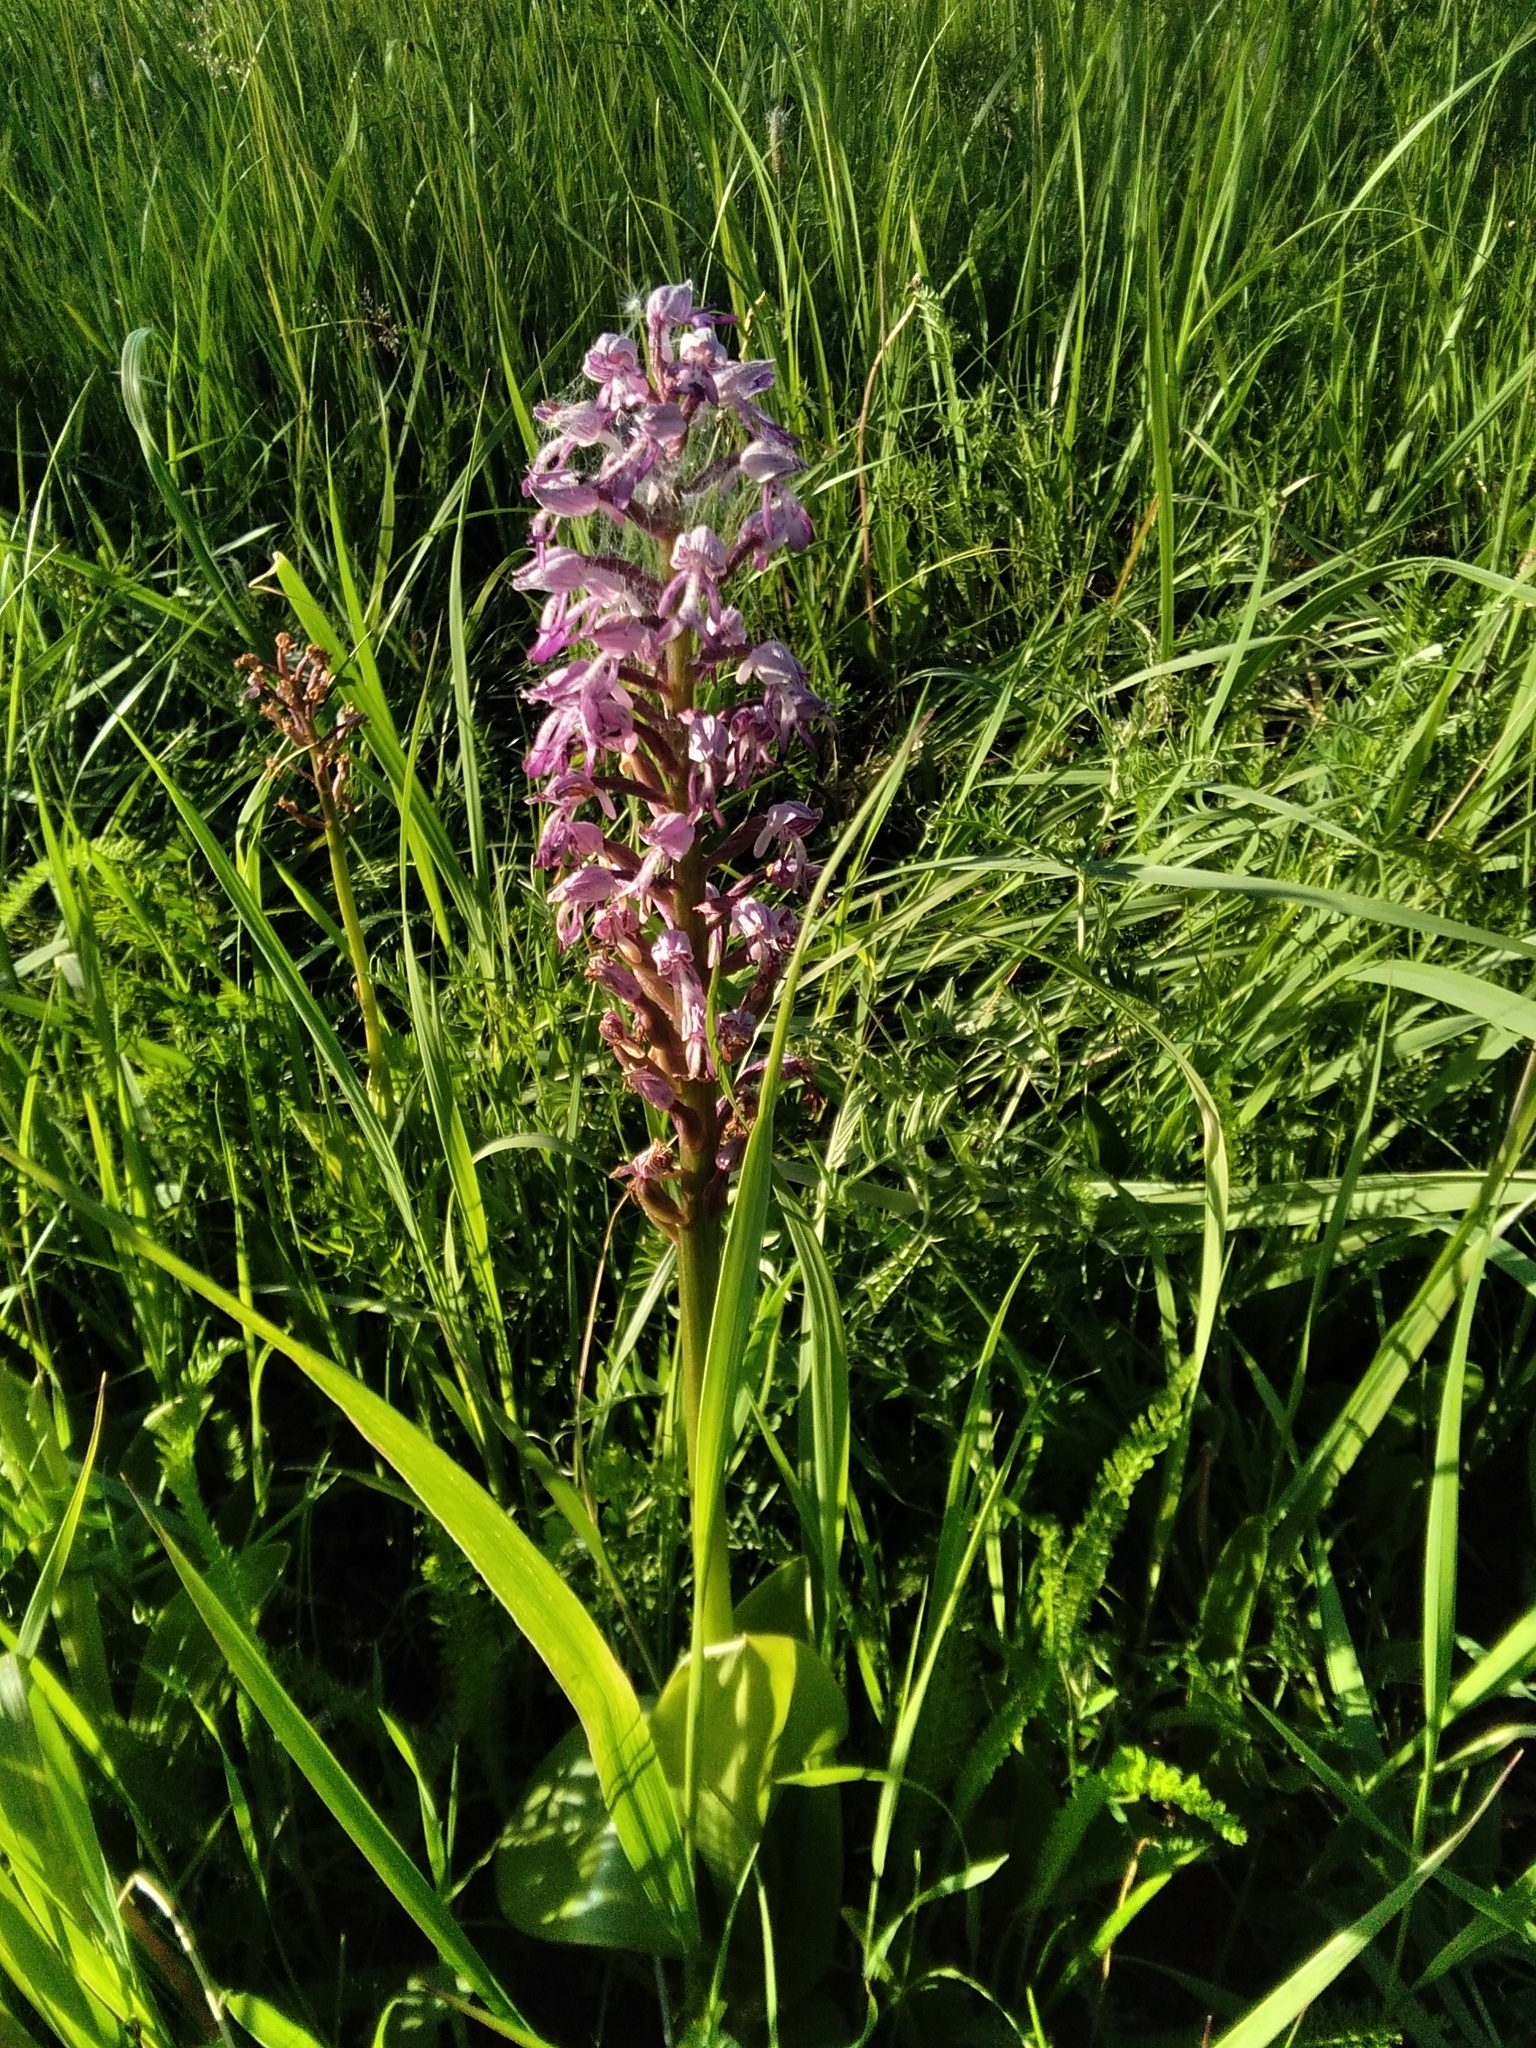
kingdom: Plantae
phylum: Tracheophyta
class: Liliopsida
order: Asparagales
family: Orchidaceae
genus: Orchis
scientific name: Orchis militaris
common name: Military orchid
